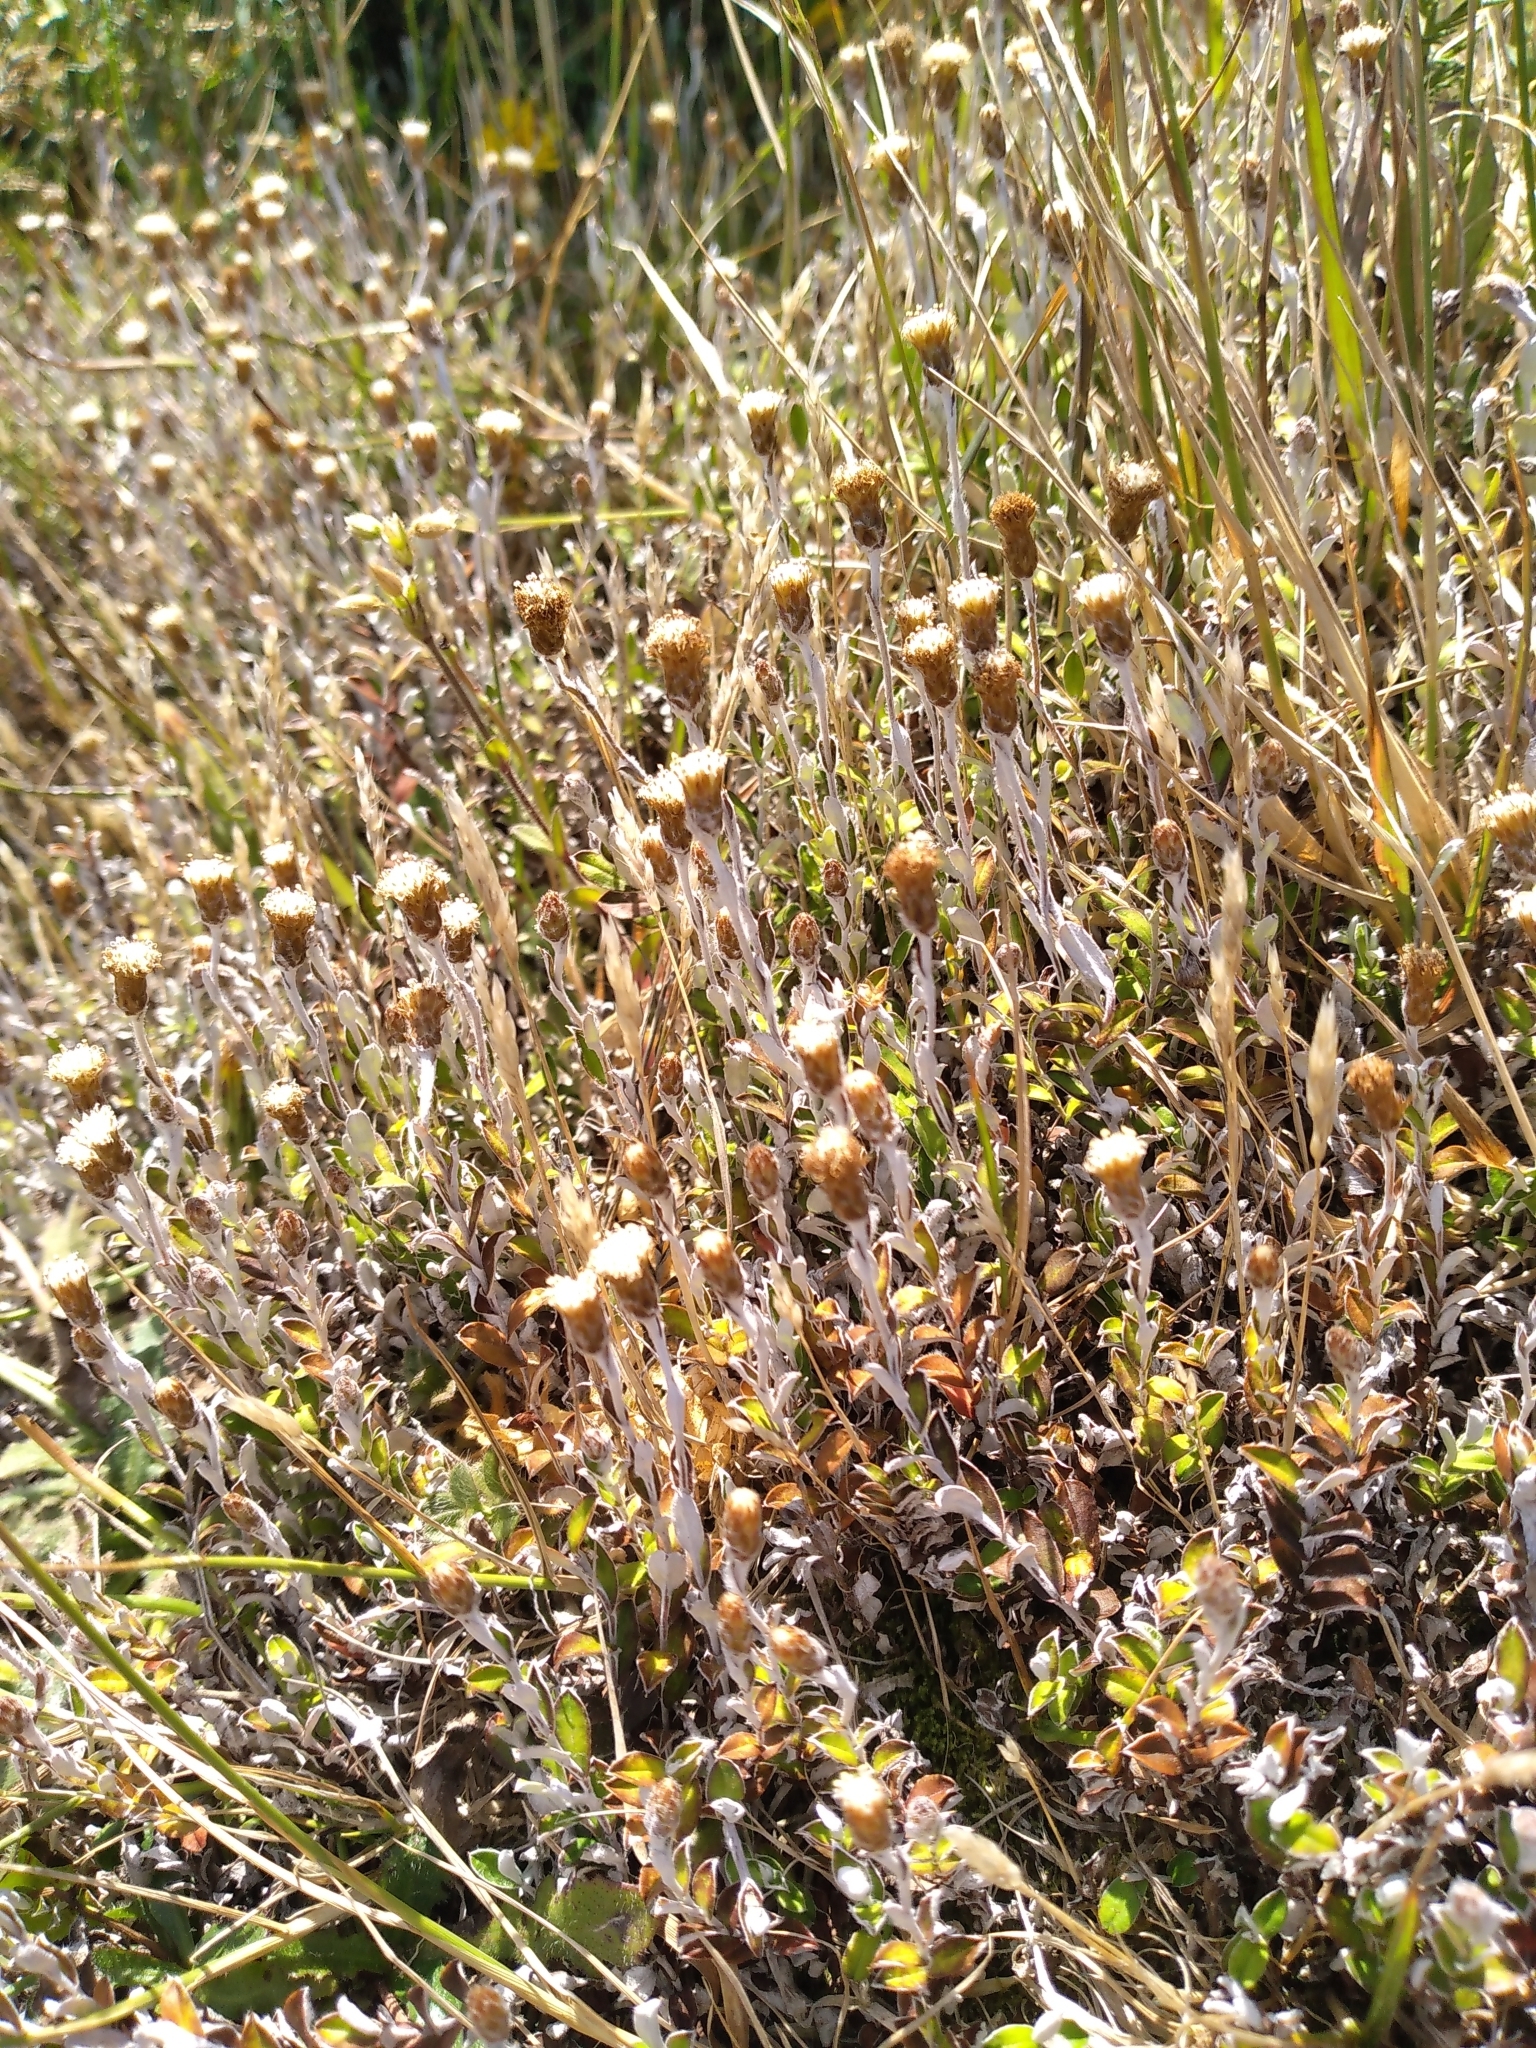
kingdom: Plantae
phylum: Tracheophyta
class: Magnoliopsida
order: Asterales
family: Asteraceae
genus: Helichrysum
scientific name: Helichrysum filicaule
